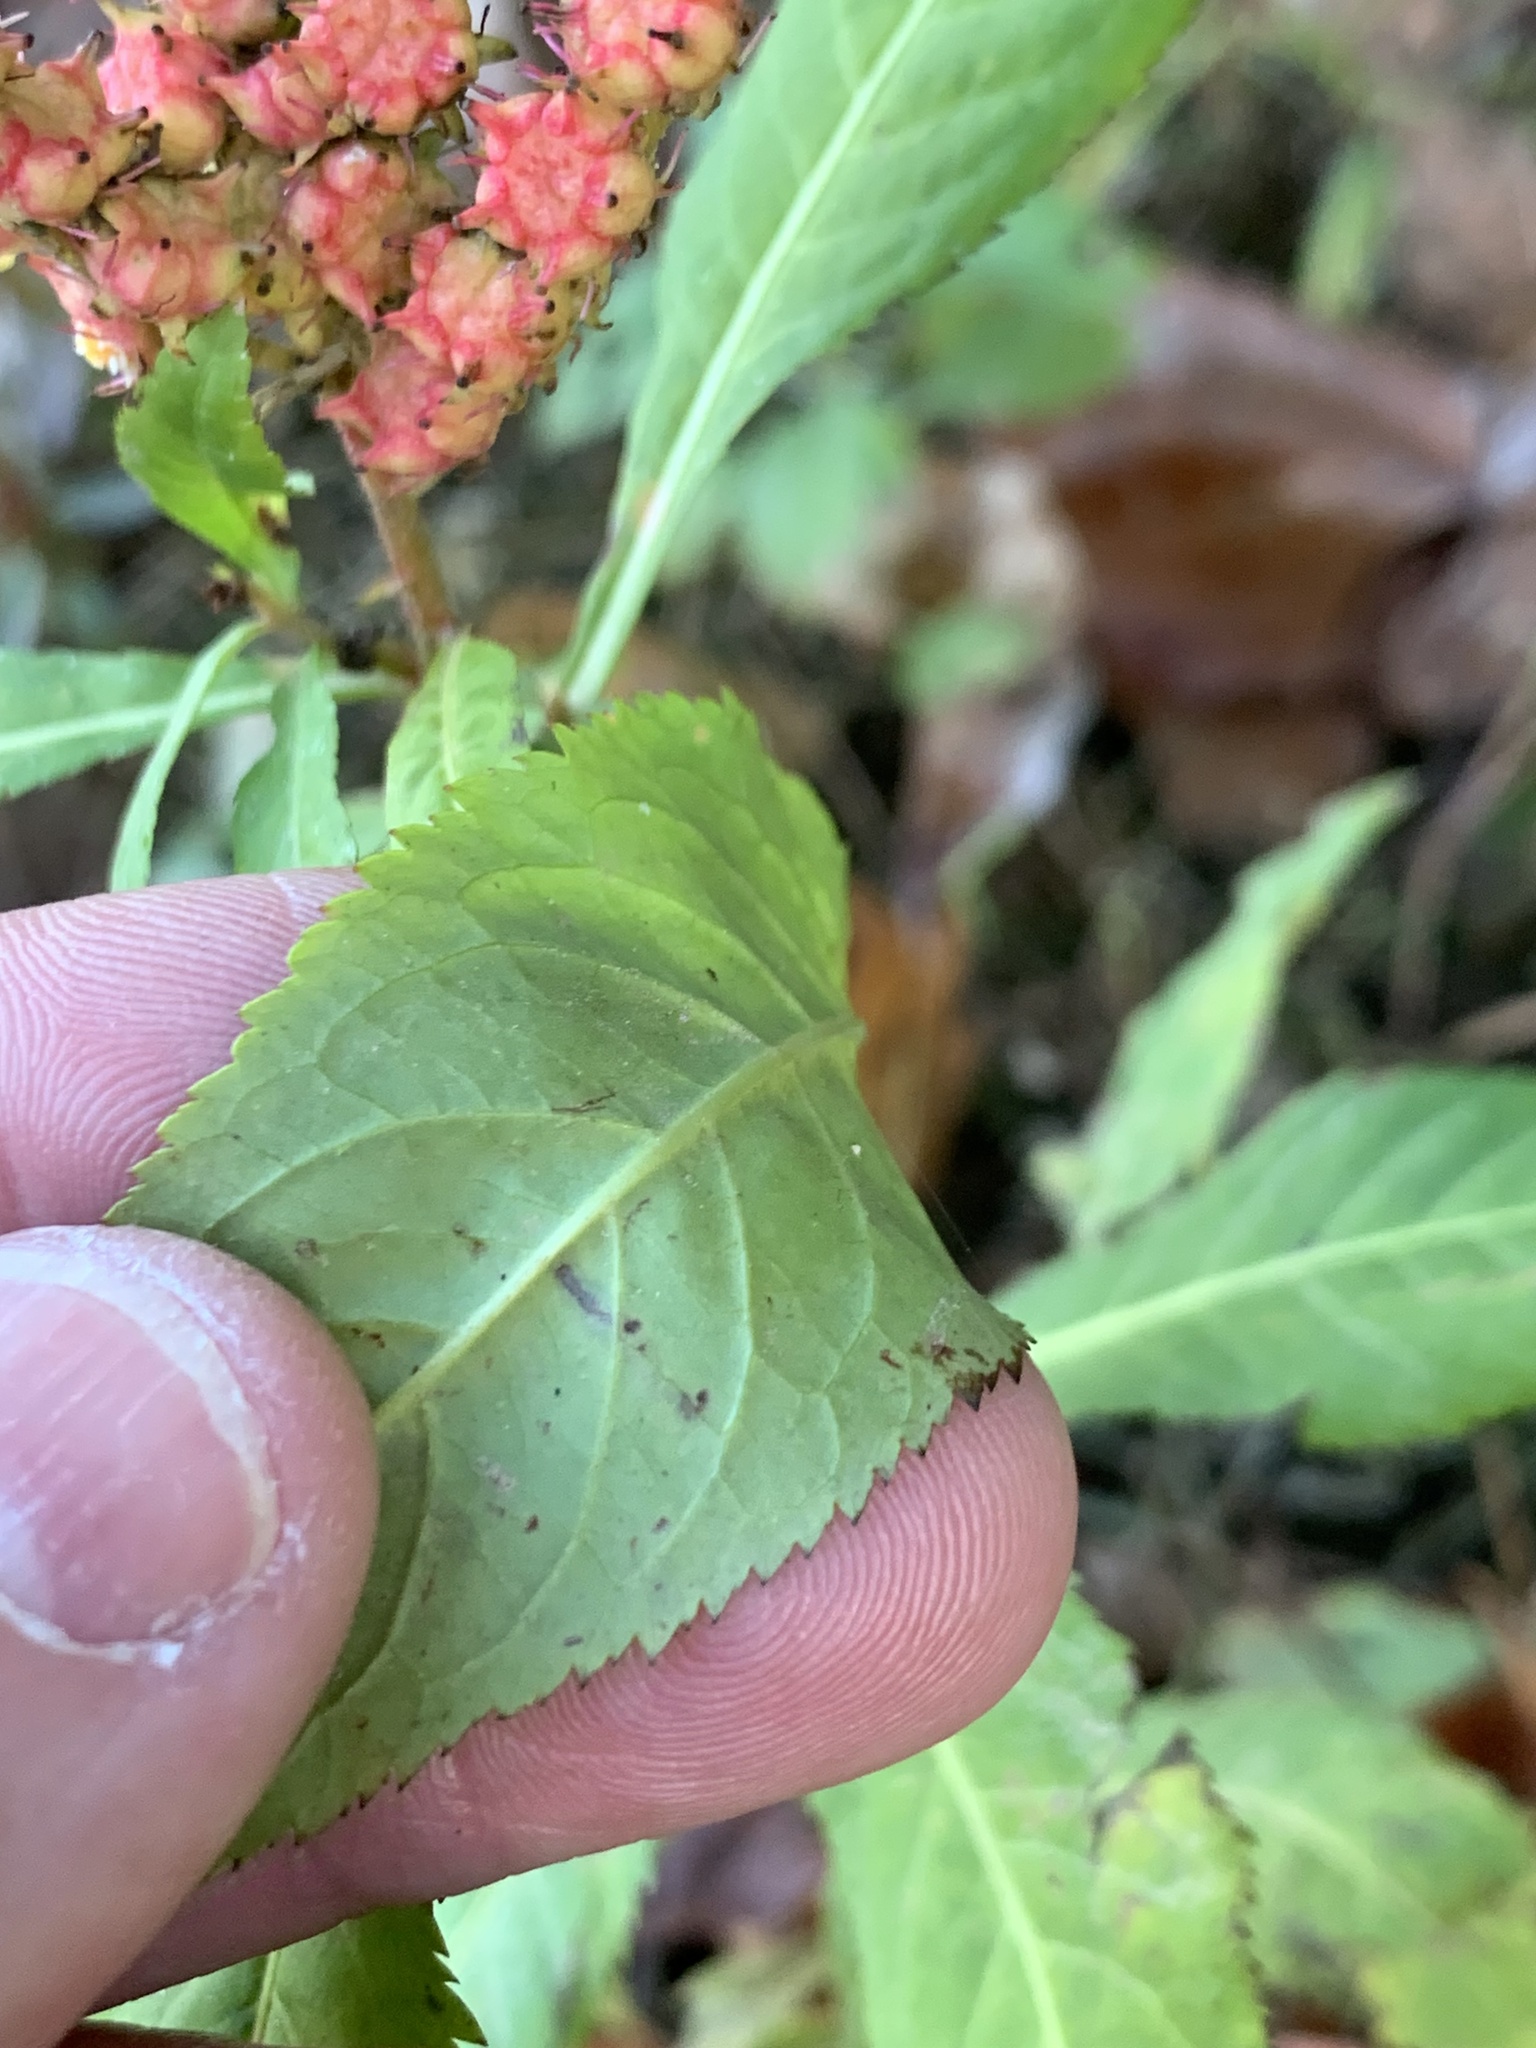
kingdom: Plantae
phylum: Tracheophyta
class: Magnoliopsida
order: Saxifragales
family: Penthoraceae
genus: Penthorum
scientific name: Penthorum sedoides
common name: Ditch stonecrop
